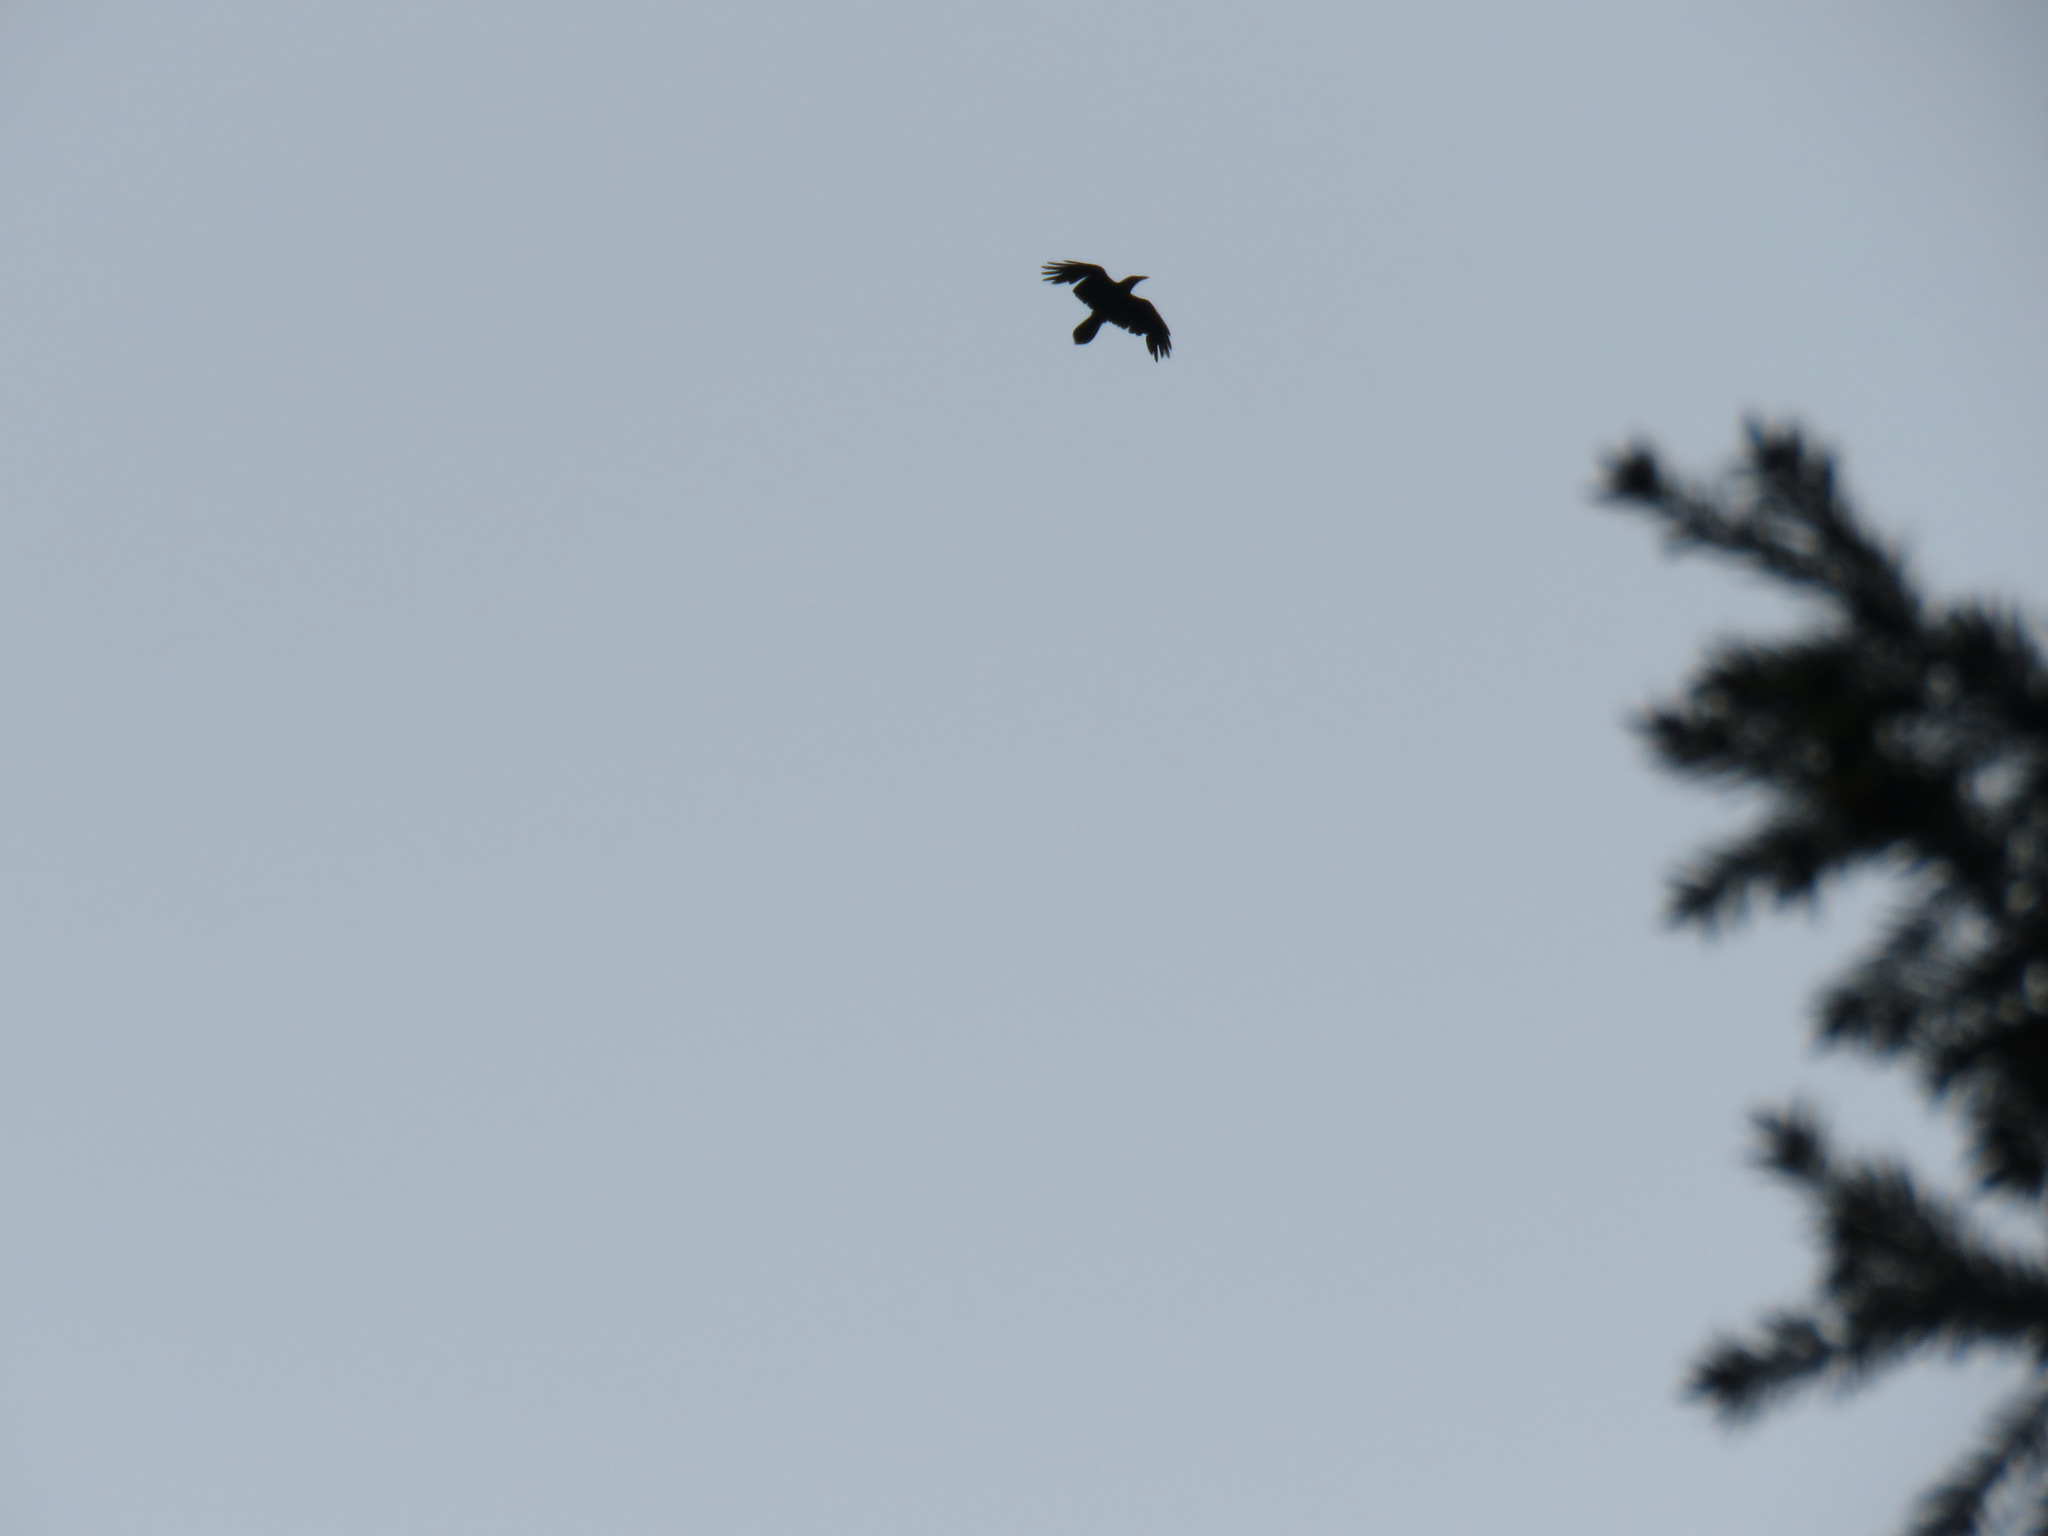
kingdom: Animalia
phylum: Chordata
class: Aves
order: Passeriformes
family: Corvidae
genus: Corvus
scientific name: Corvus corax
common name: Common raven
